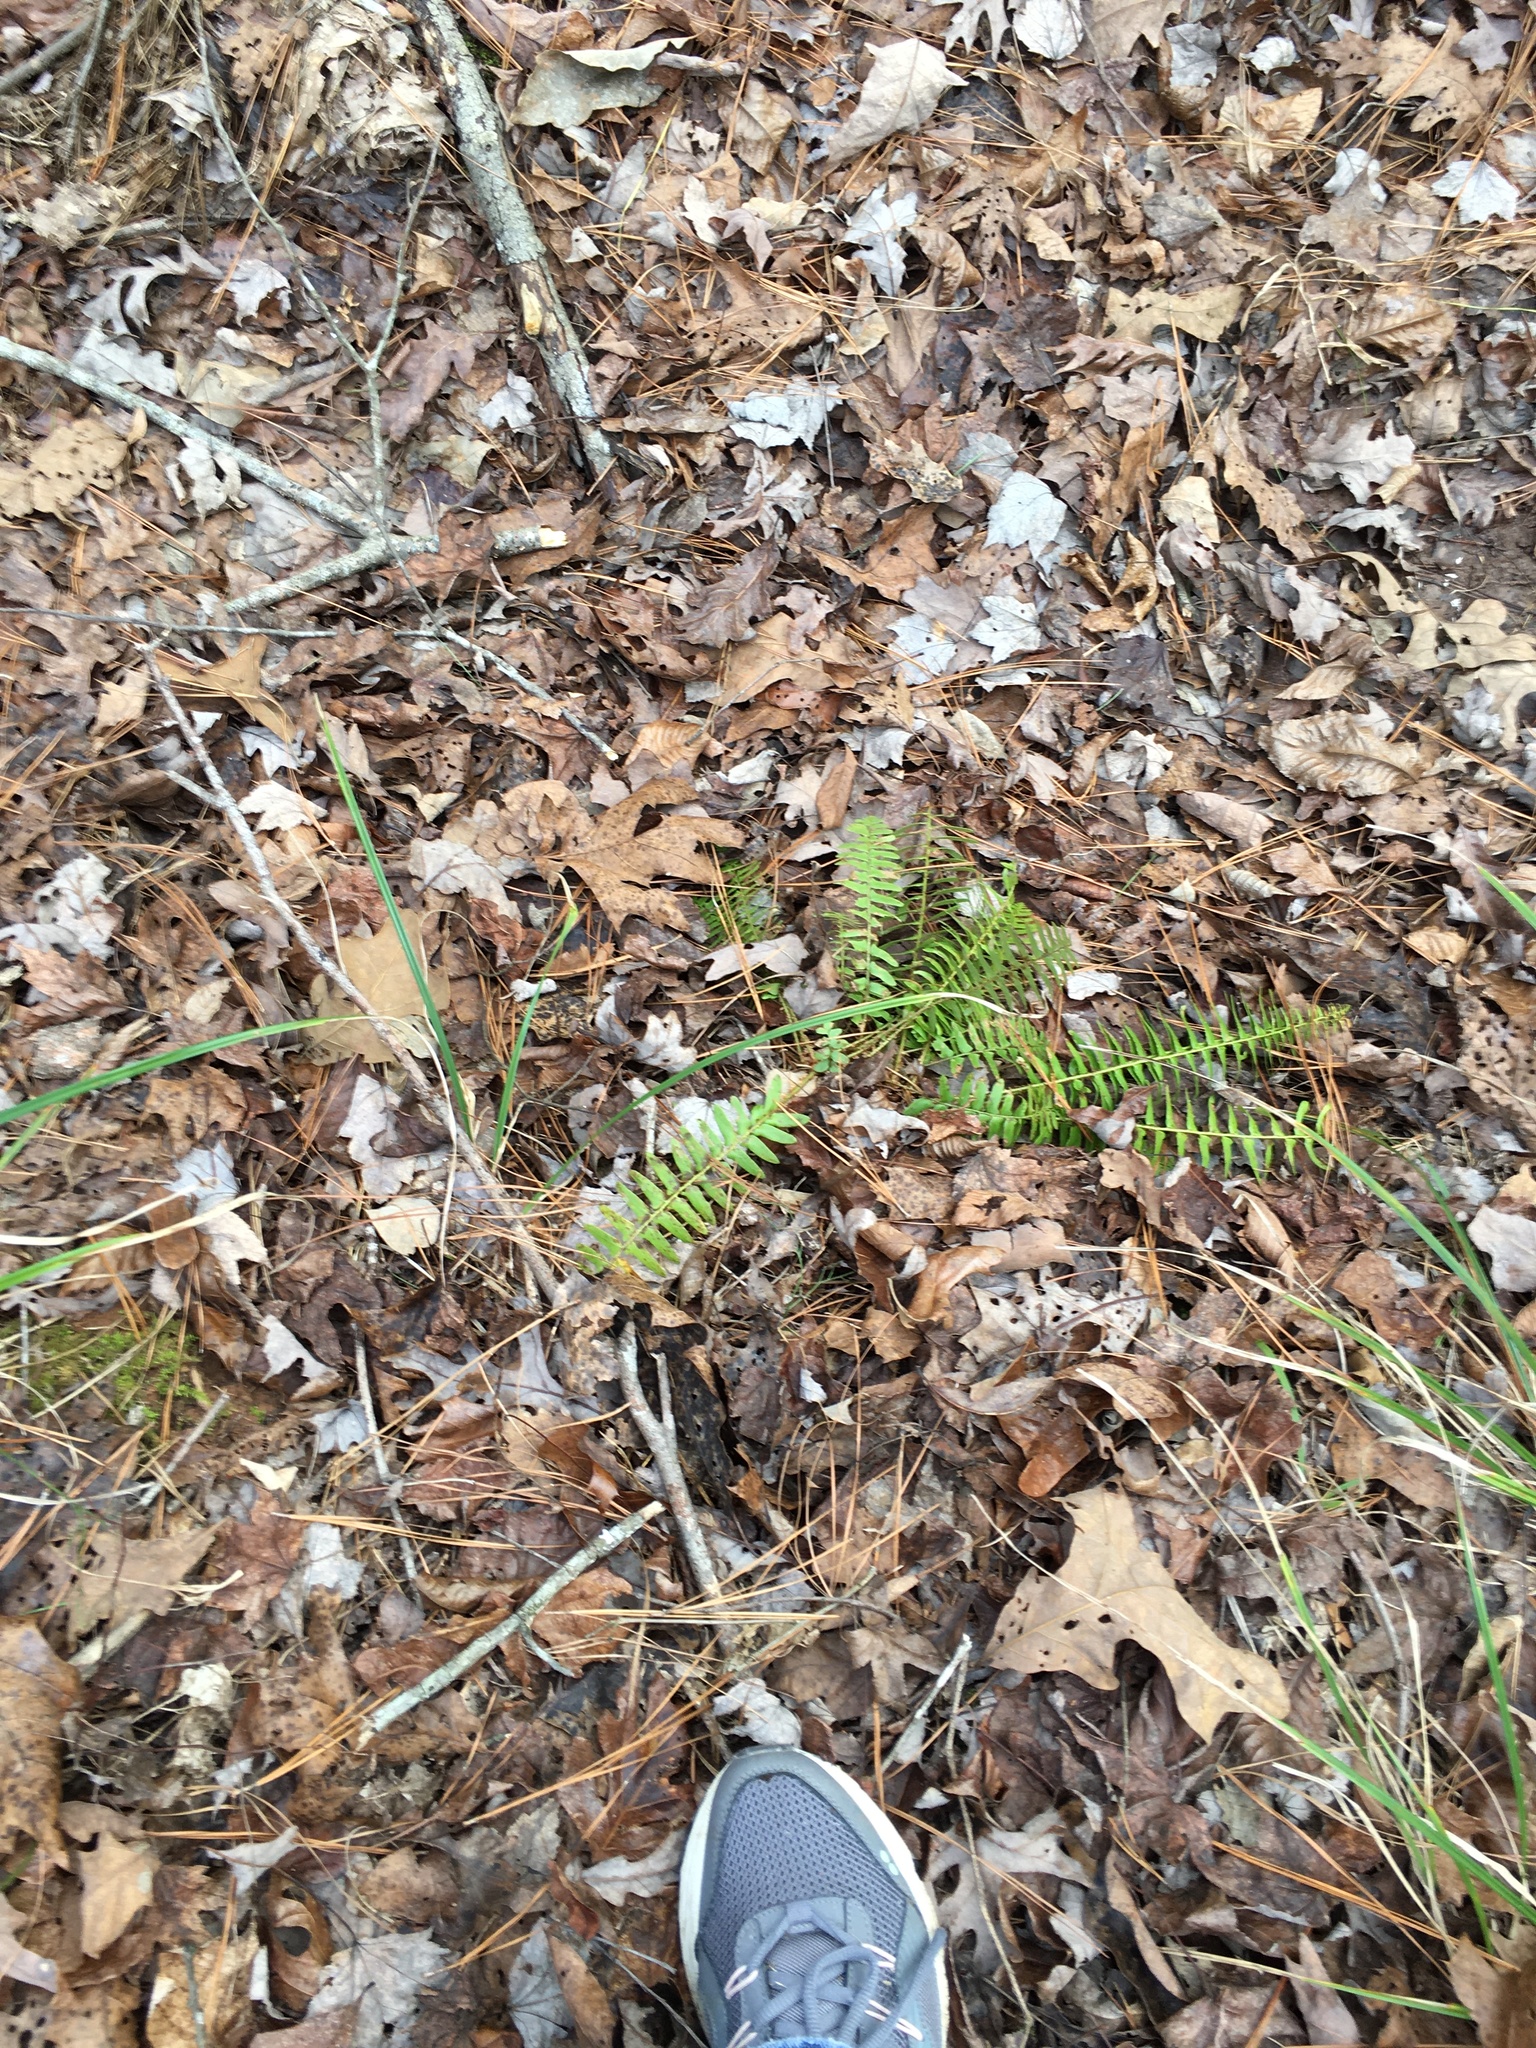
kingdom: Plantae
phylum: Tracheophyta
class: Polypodiopsida
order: Polypodiales
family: Dryopteridaceae
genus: Polystichum
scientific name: Polystichum acrostichoides
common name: Christmas fern
